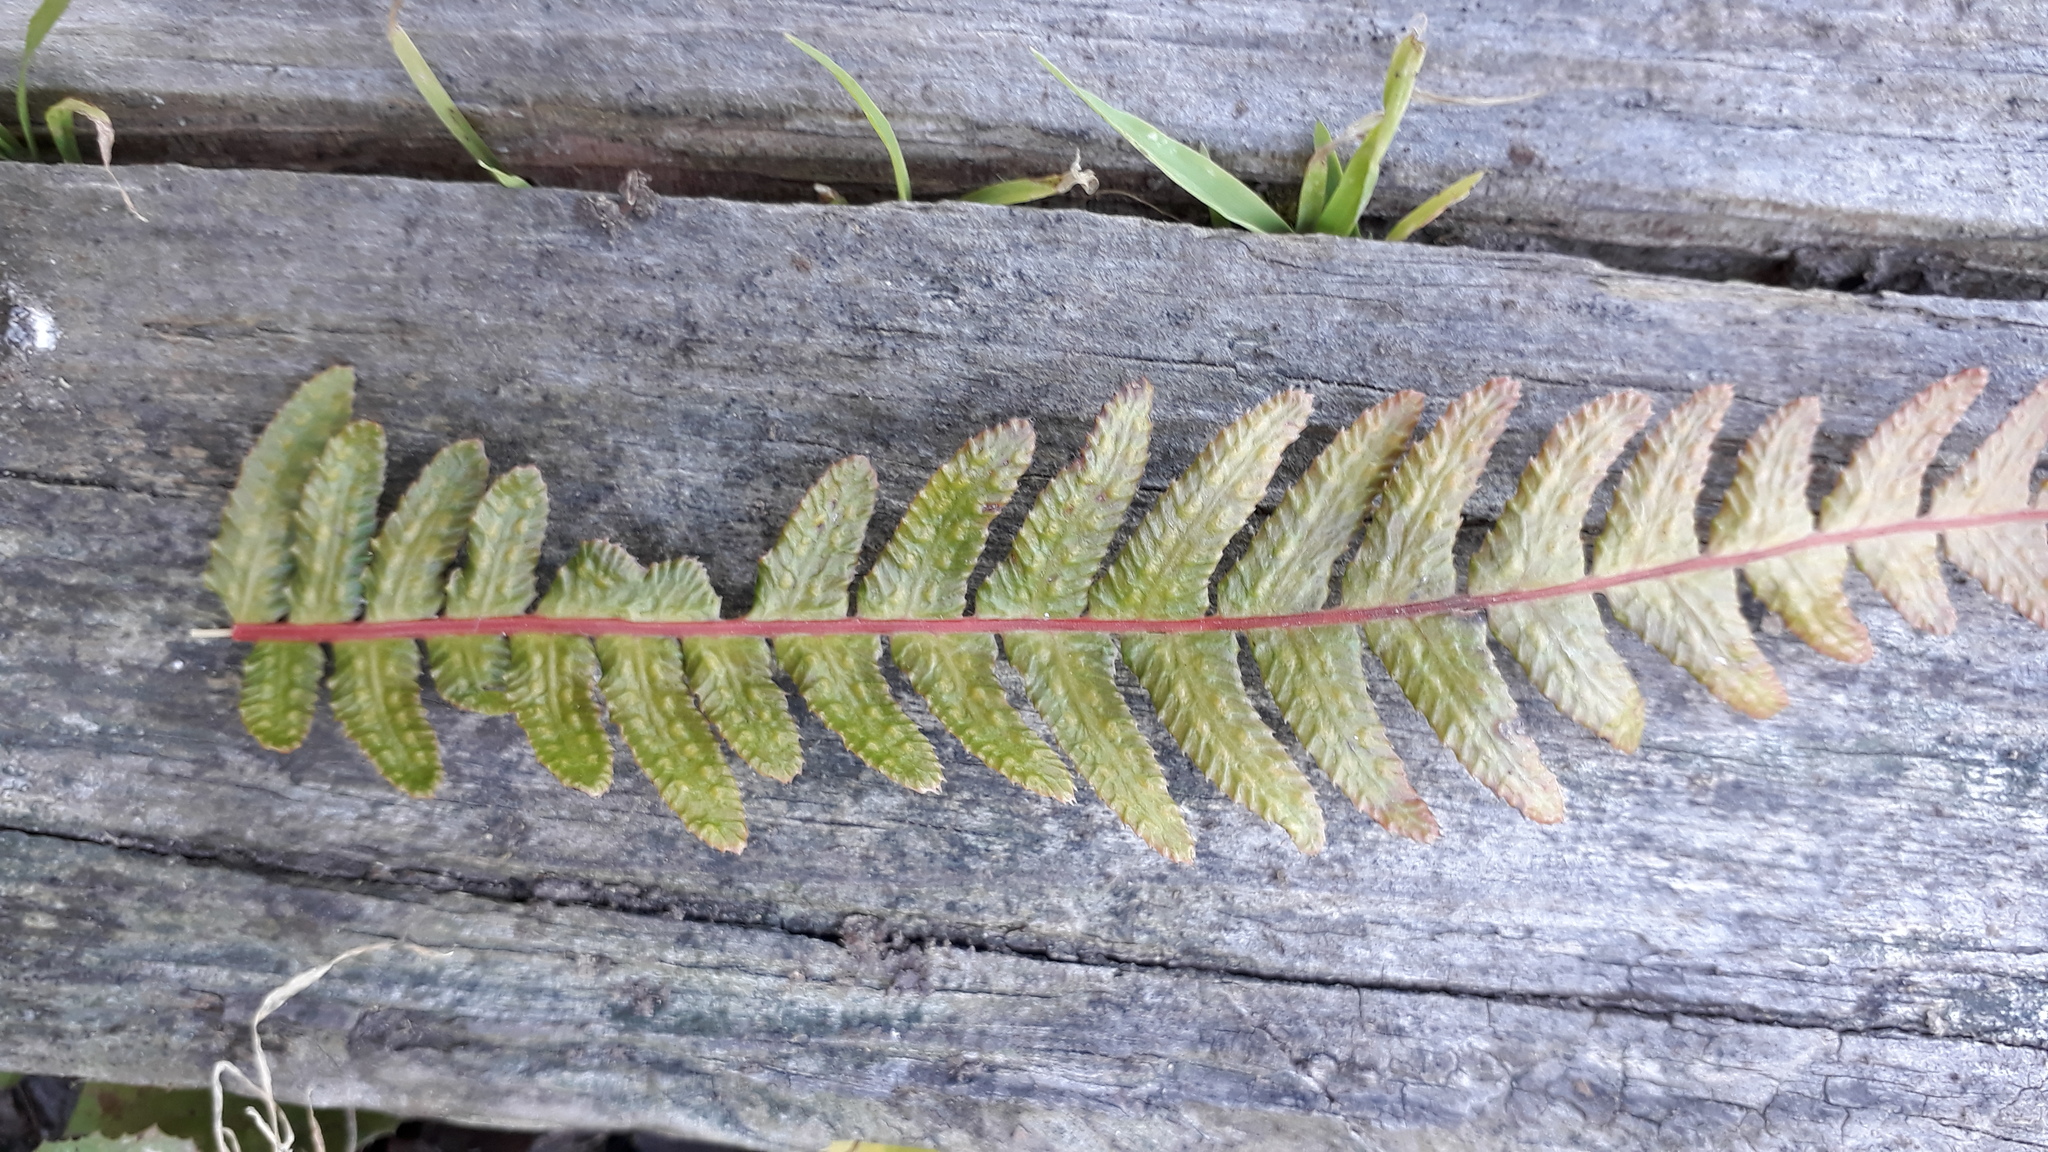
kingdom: Plantae
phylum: Tracheophyta
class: Polypodiopsida
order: Polypodiales
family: Blechnaceae
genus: Doodia
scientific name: Doodia australis
